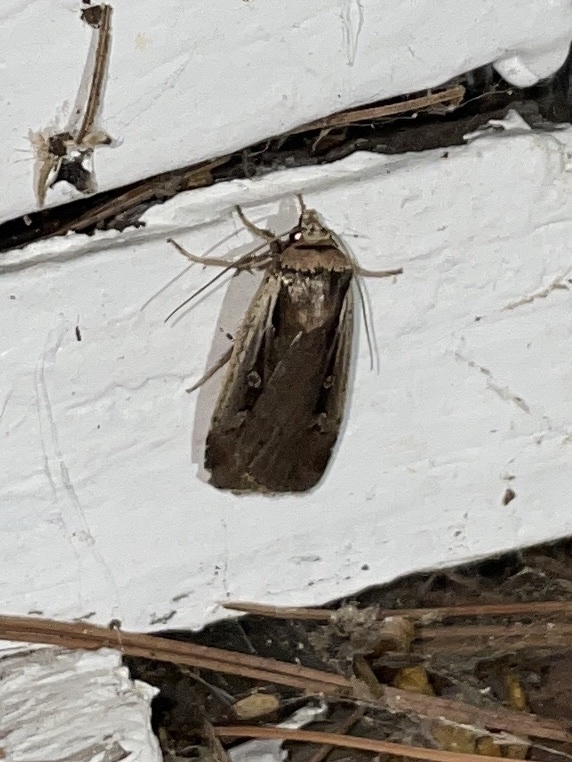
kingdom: Animalia
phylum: Arthropoda
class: Insecta
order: Lepidoptera
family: Noctuidae
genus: Ochropleura
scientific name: Ochropleura implecta
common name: Flame-shouldered dart
